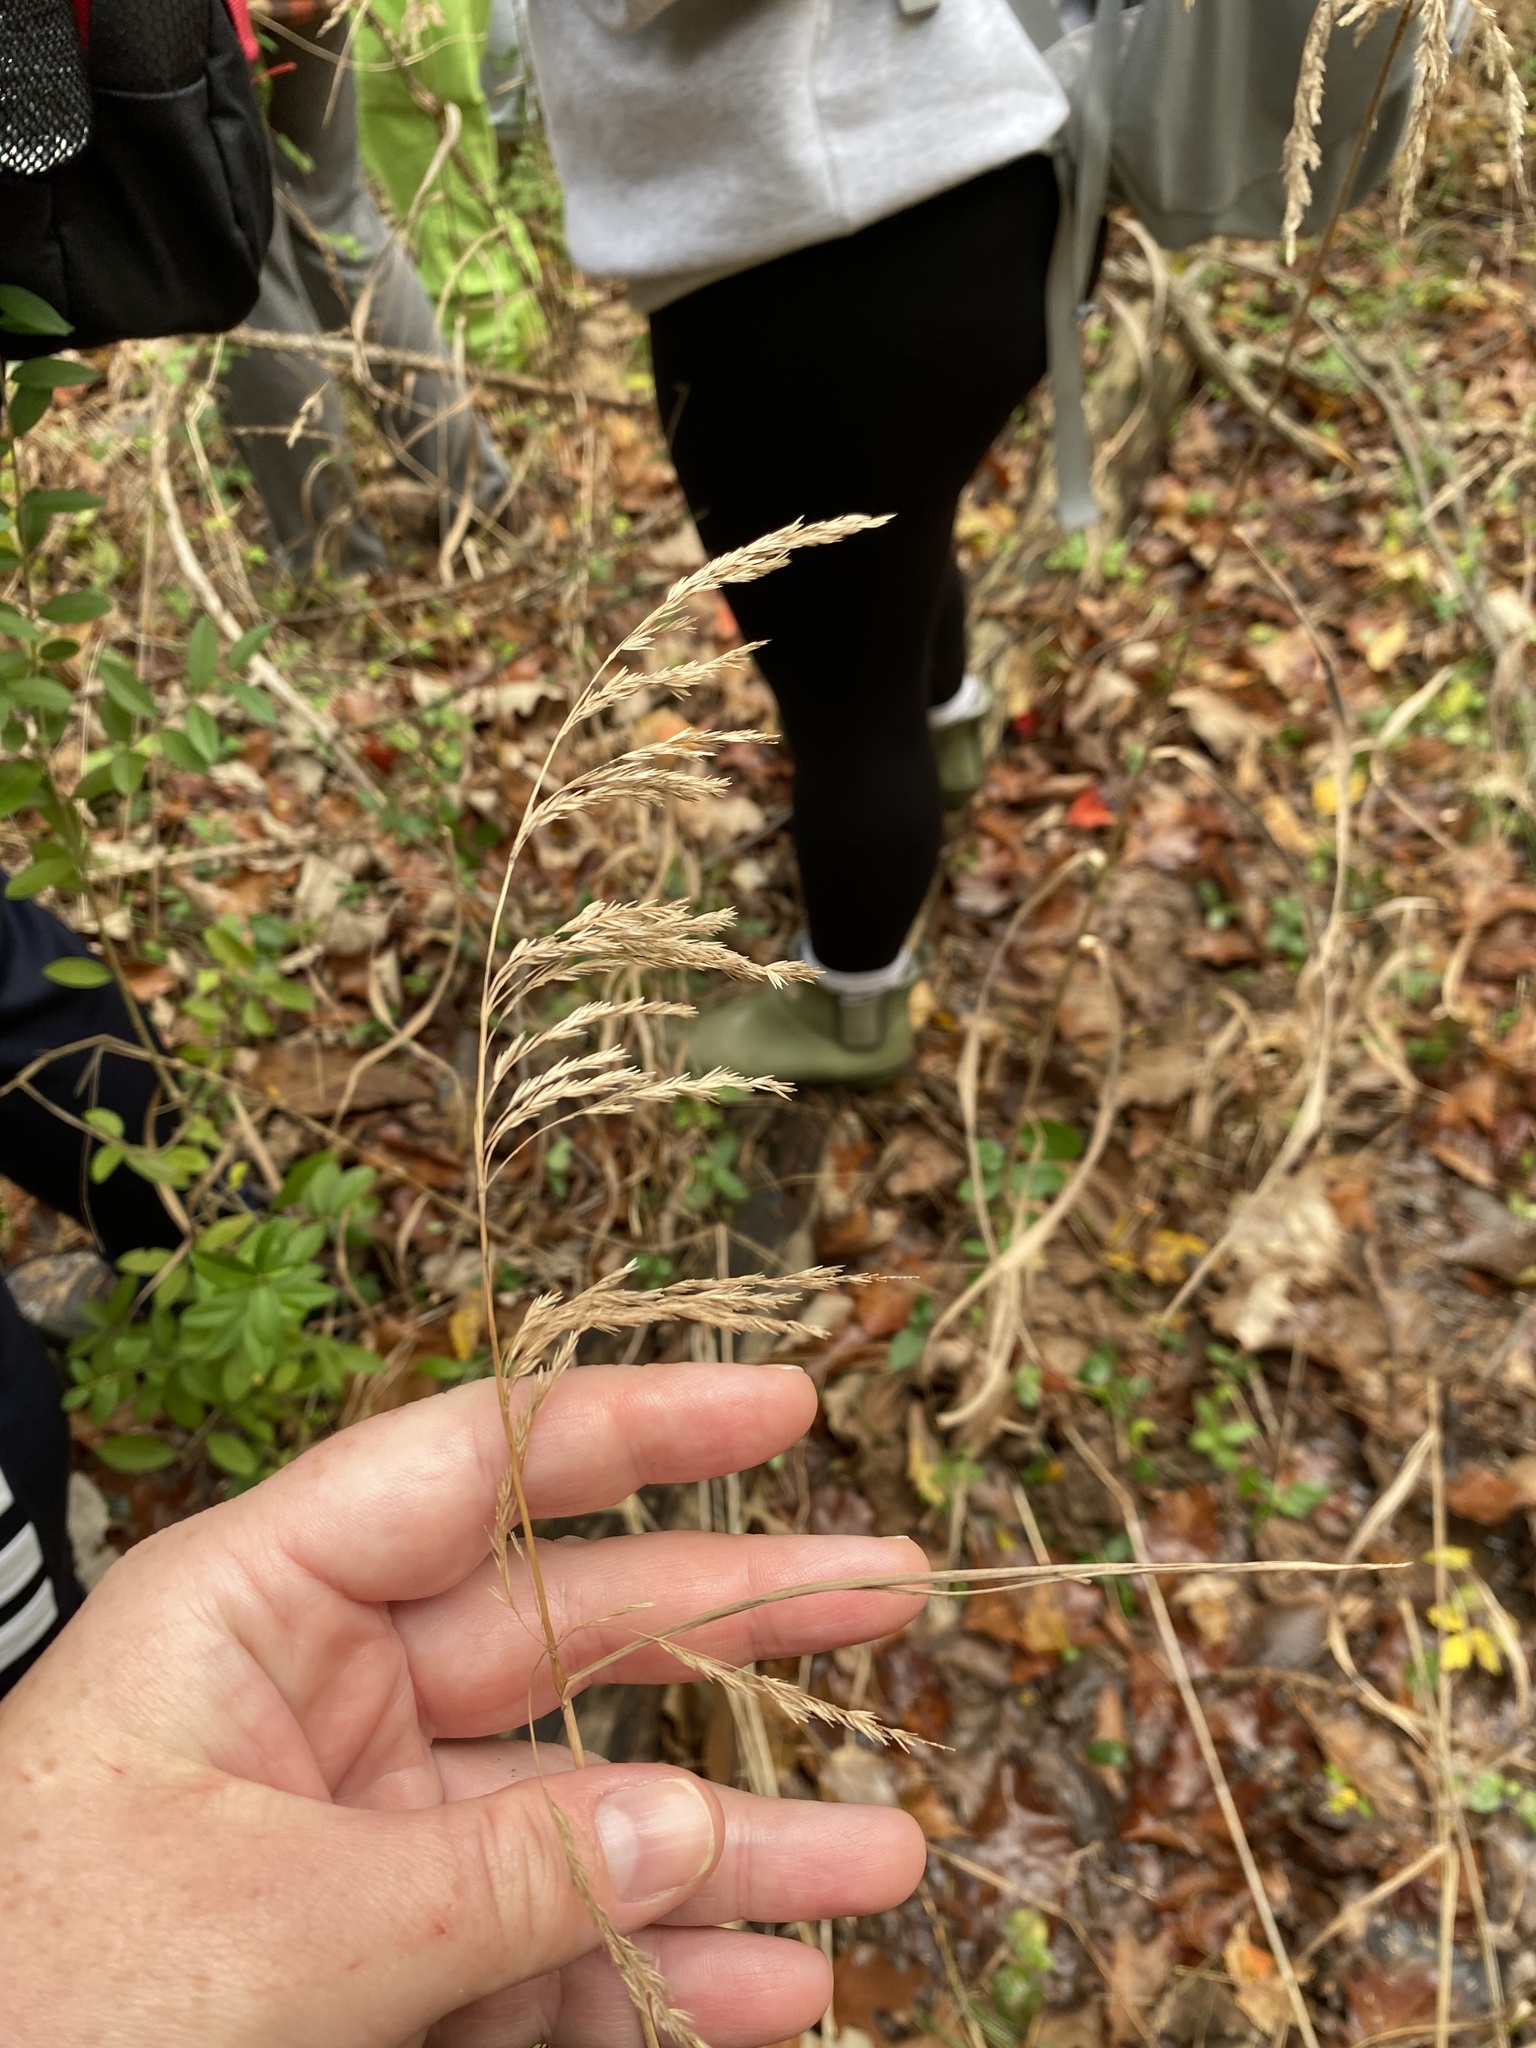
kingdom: Plantae
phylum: Tracheophyta
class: Liliopsida
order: Poales
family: Poaceae
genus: Cinna
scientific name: Cinna arundinacea
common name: Stout woodreed
